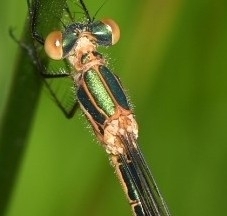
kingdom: Animalia
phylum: Arthropoda
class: Insecta
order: Odonata
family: Lestidae
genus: Lestes
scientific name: Lestes sponsa
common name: Common spreadwing
